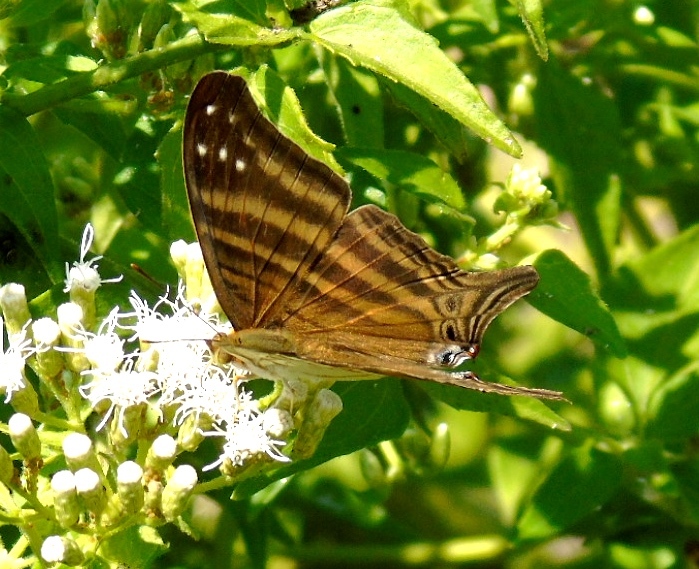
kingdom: Animalia
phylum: Arthropoda
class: Insecta
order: Lepidoptera
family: Nymphalidae
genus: Marpesia
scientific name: Marpesia chiron
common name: Many-banded daggerwing
